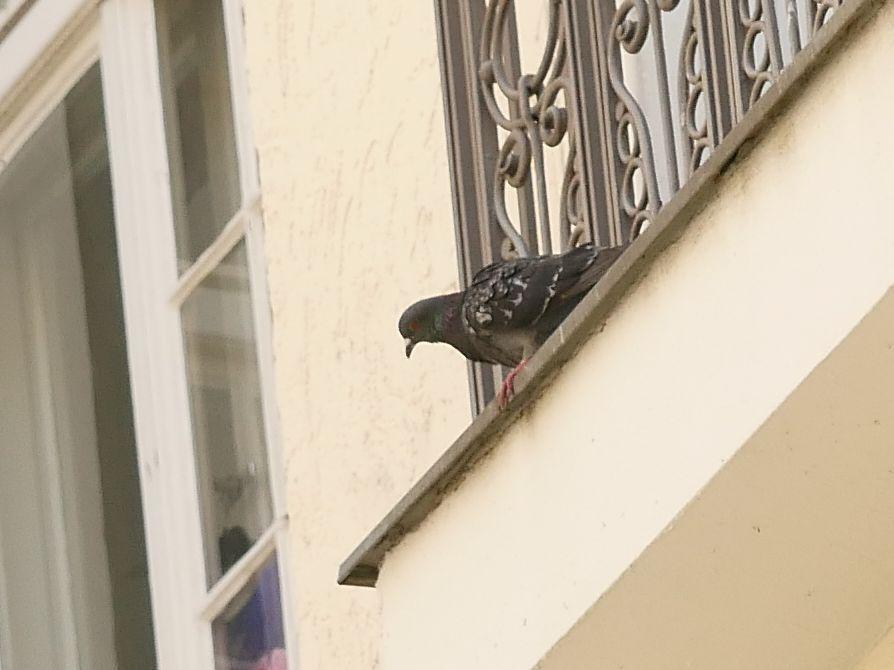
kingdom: Animalia
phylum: Chordata
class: Aves
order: Columbiformes
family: Columbidae
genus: Columba
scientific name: Columba livia
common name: Rock pigeon
